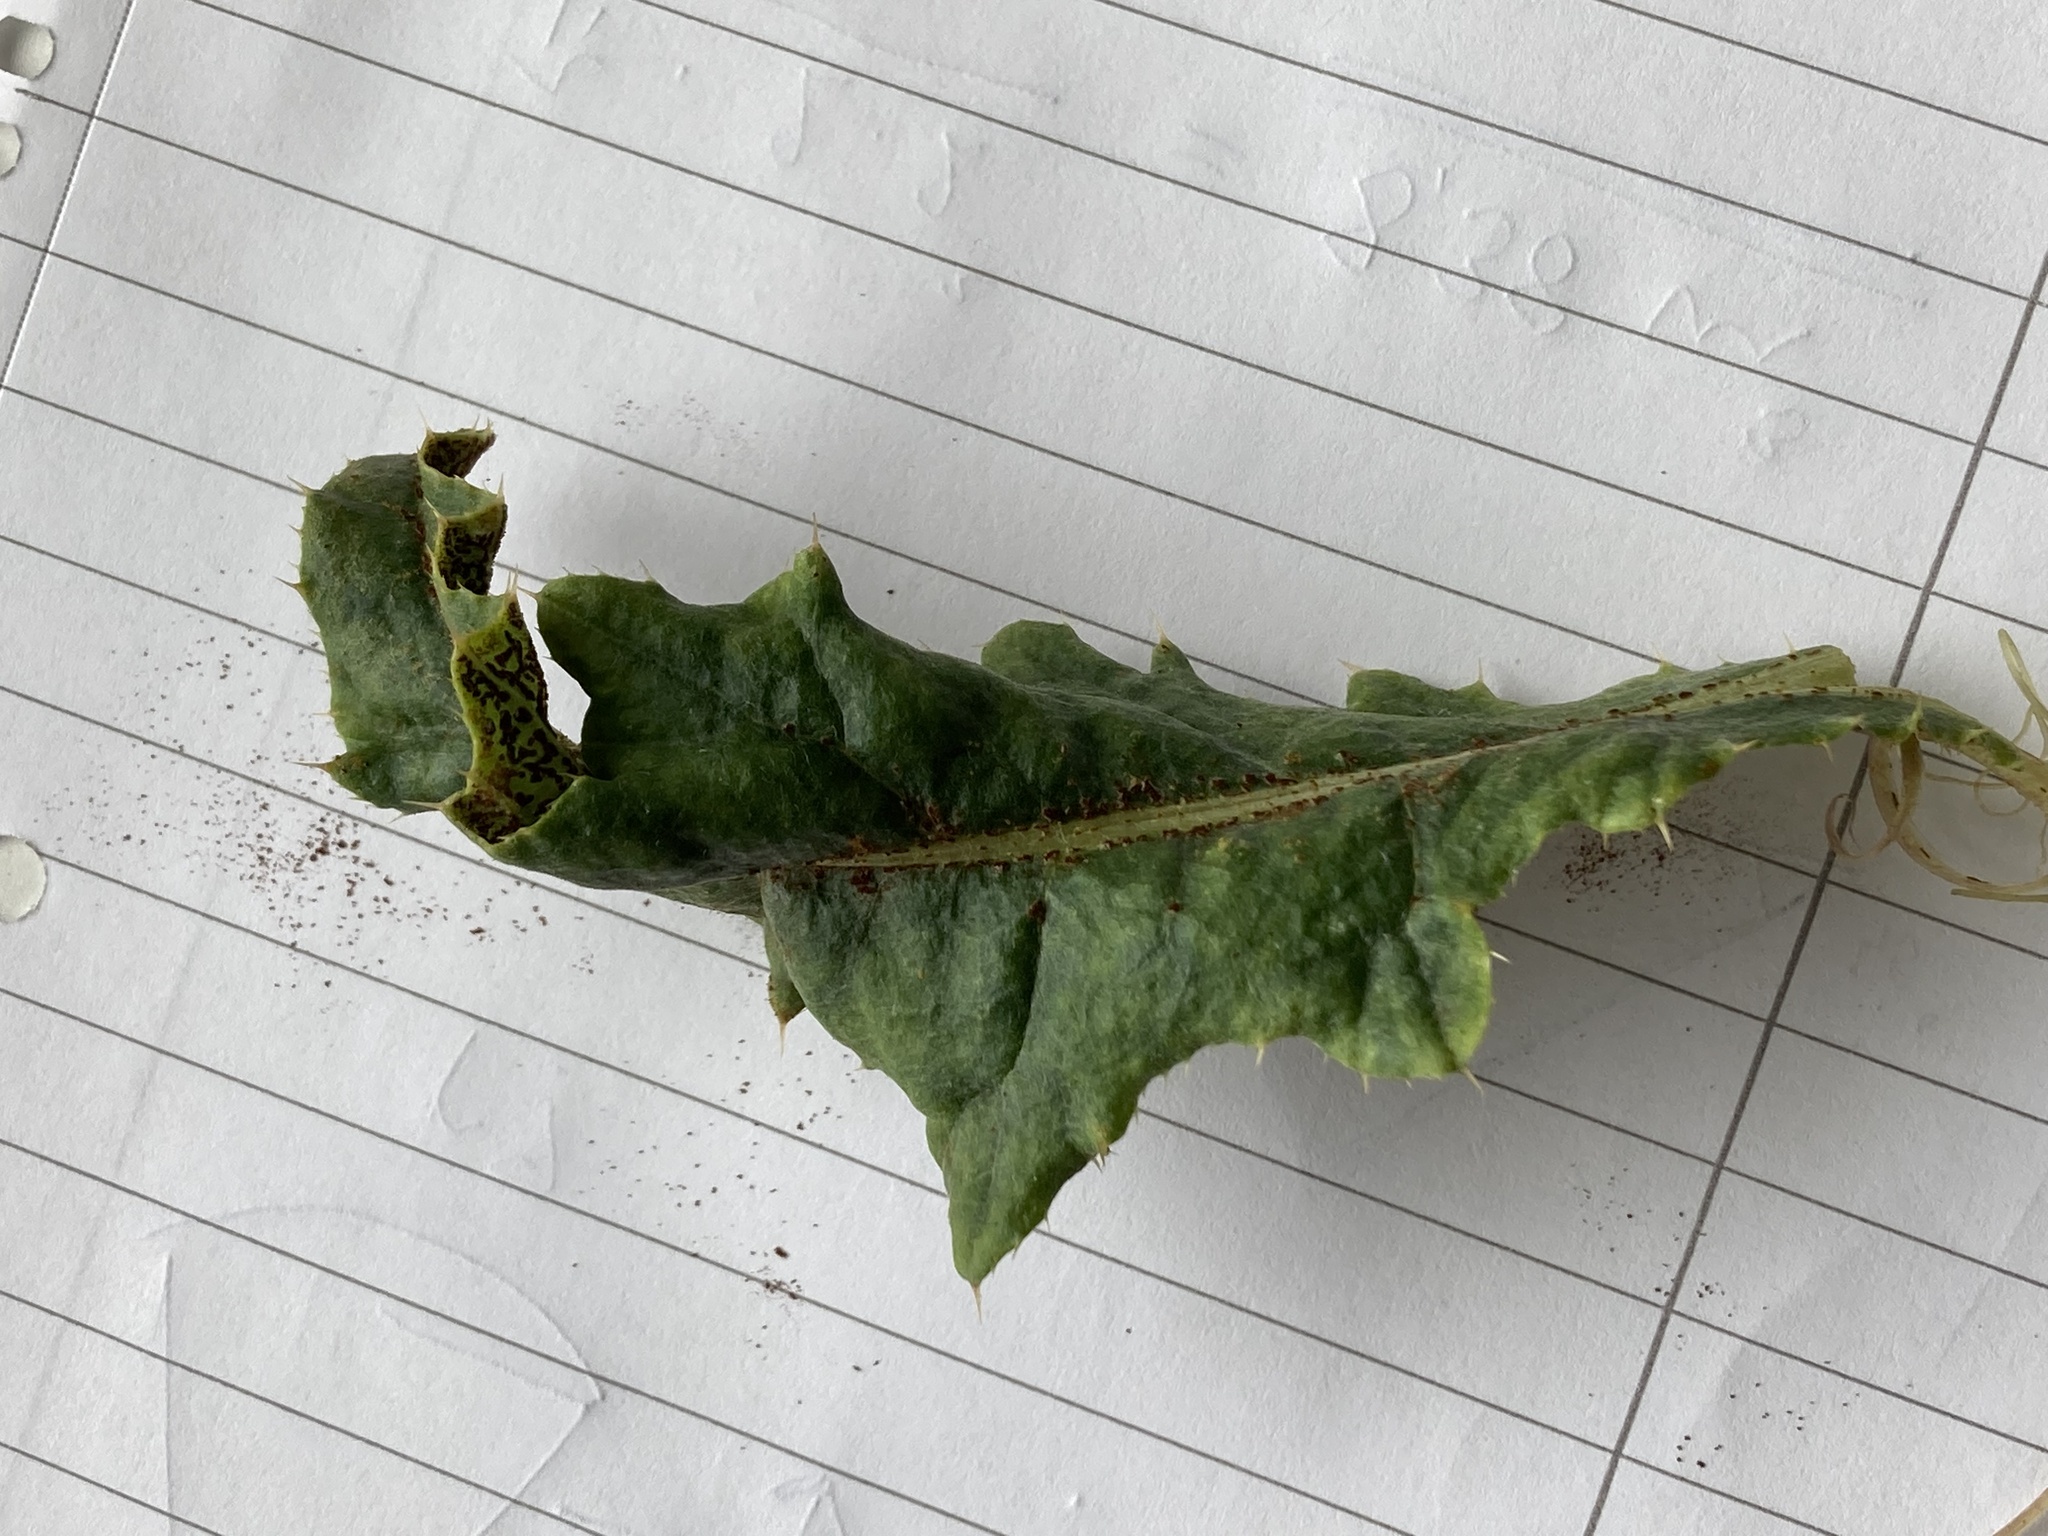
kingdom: Fungi
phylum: Basidiomycota
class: Pucciniomycetes
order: Pucciniales
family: Pucciniaceae
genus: Puccinia
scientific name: Puccinia suaveolens
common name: Thistle rust
